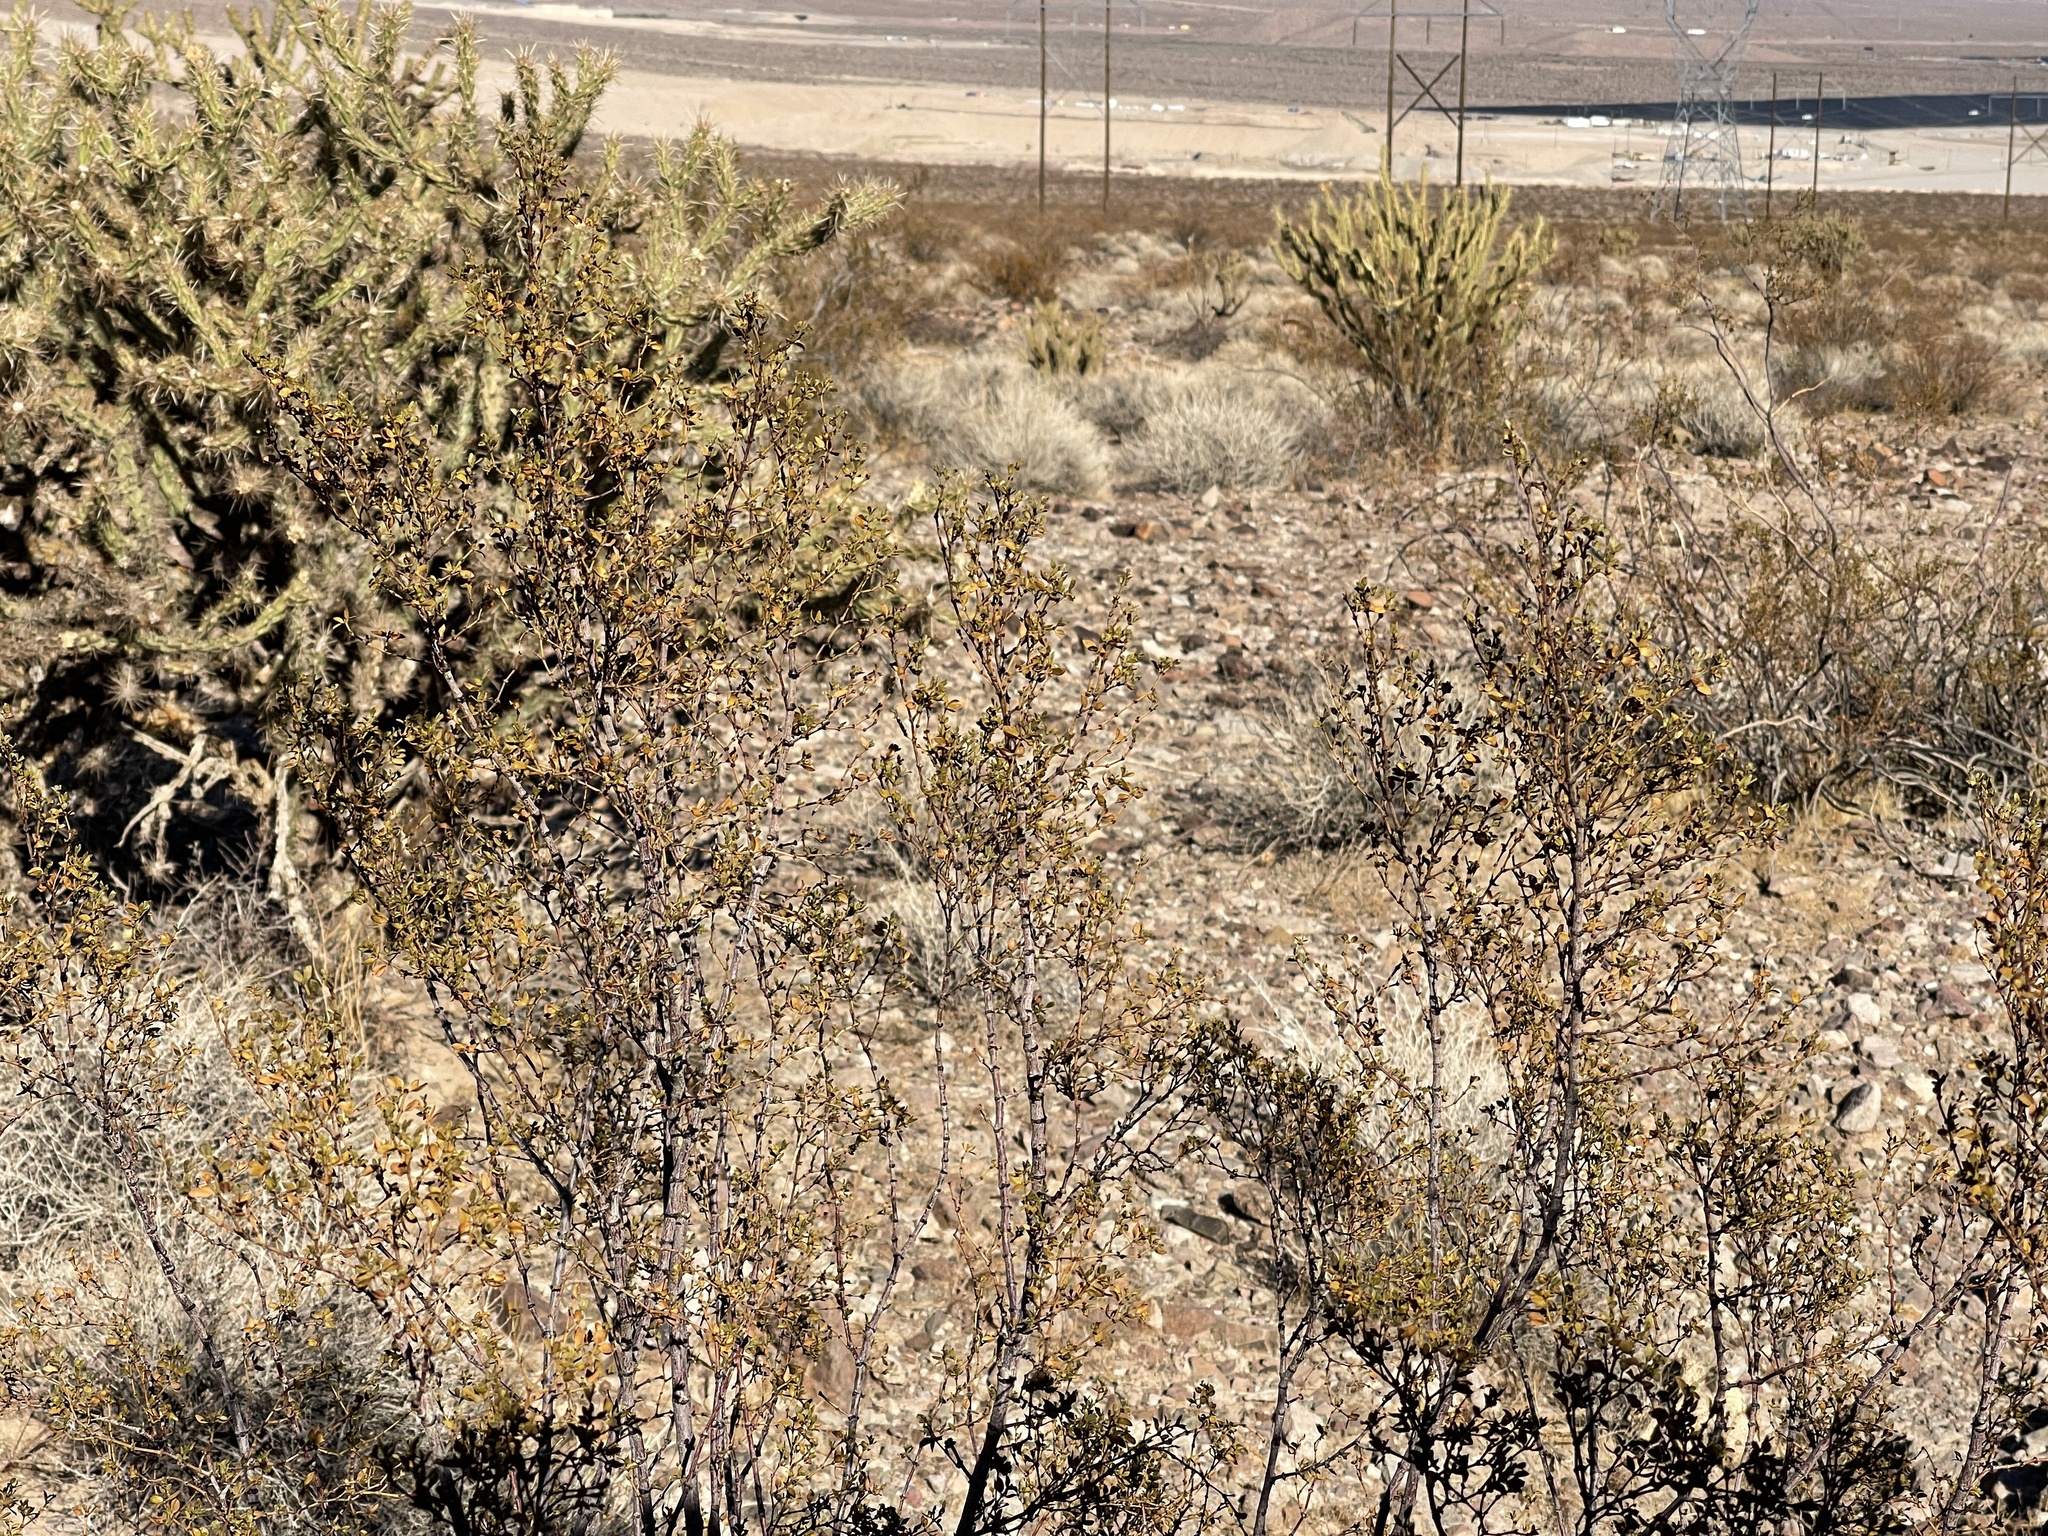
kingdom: Plantae
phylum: Tracheophyta
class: Magnoliopsida
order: Zygophyllales
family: Zygophyllaceae
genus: Larrea
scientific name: Larrea tridentata
